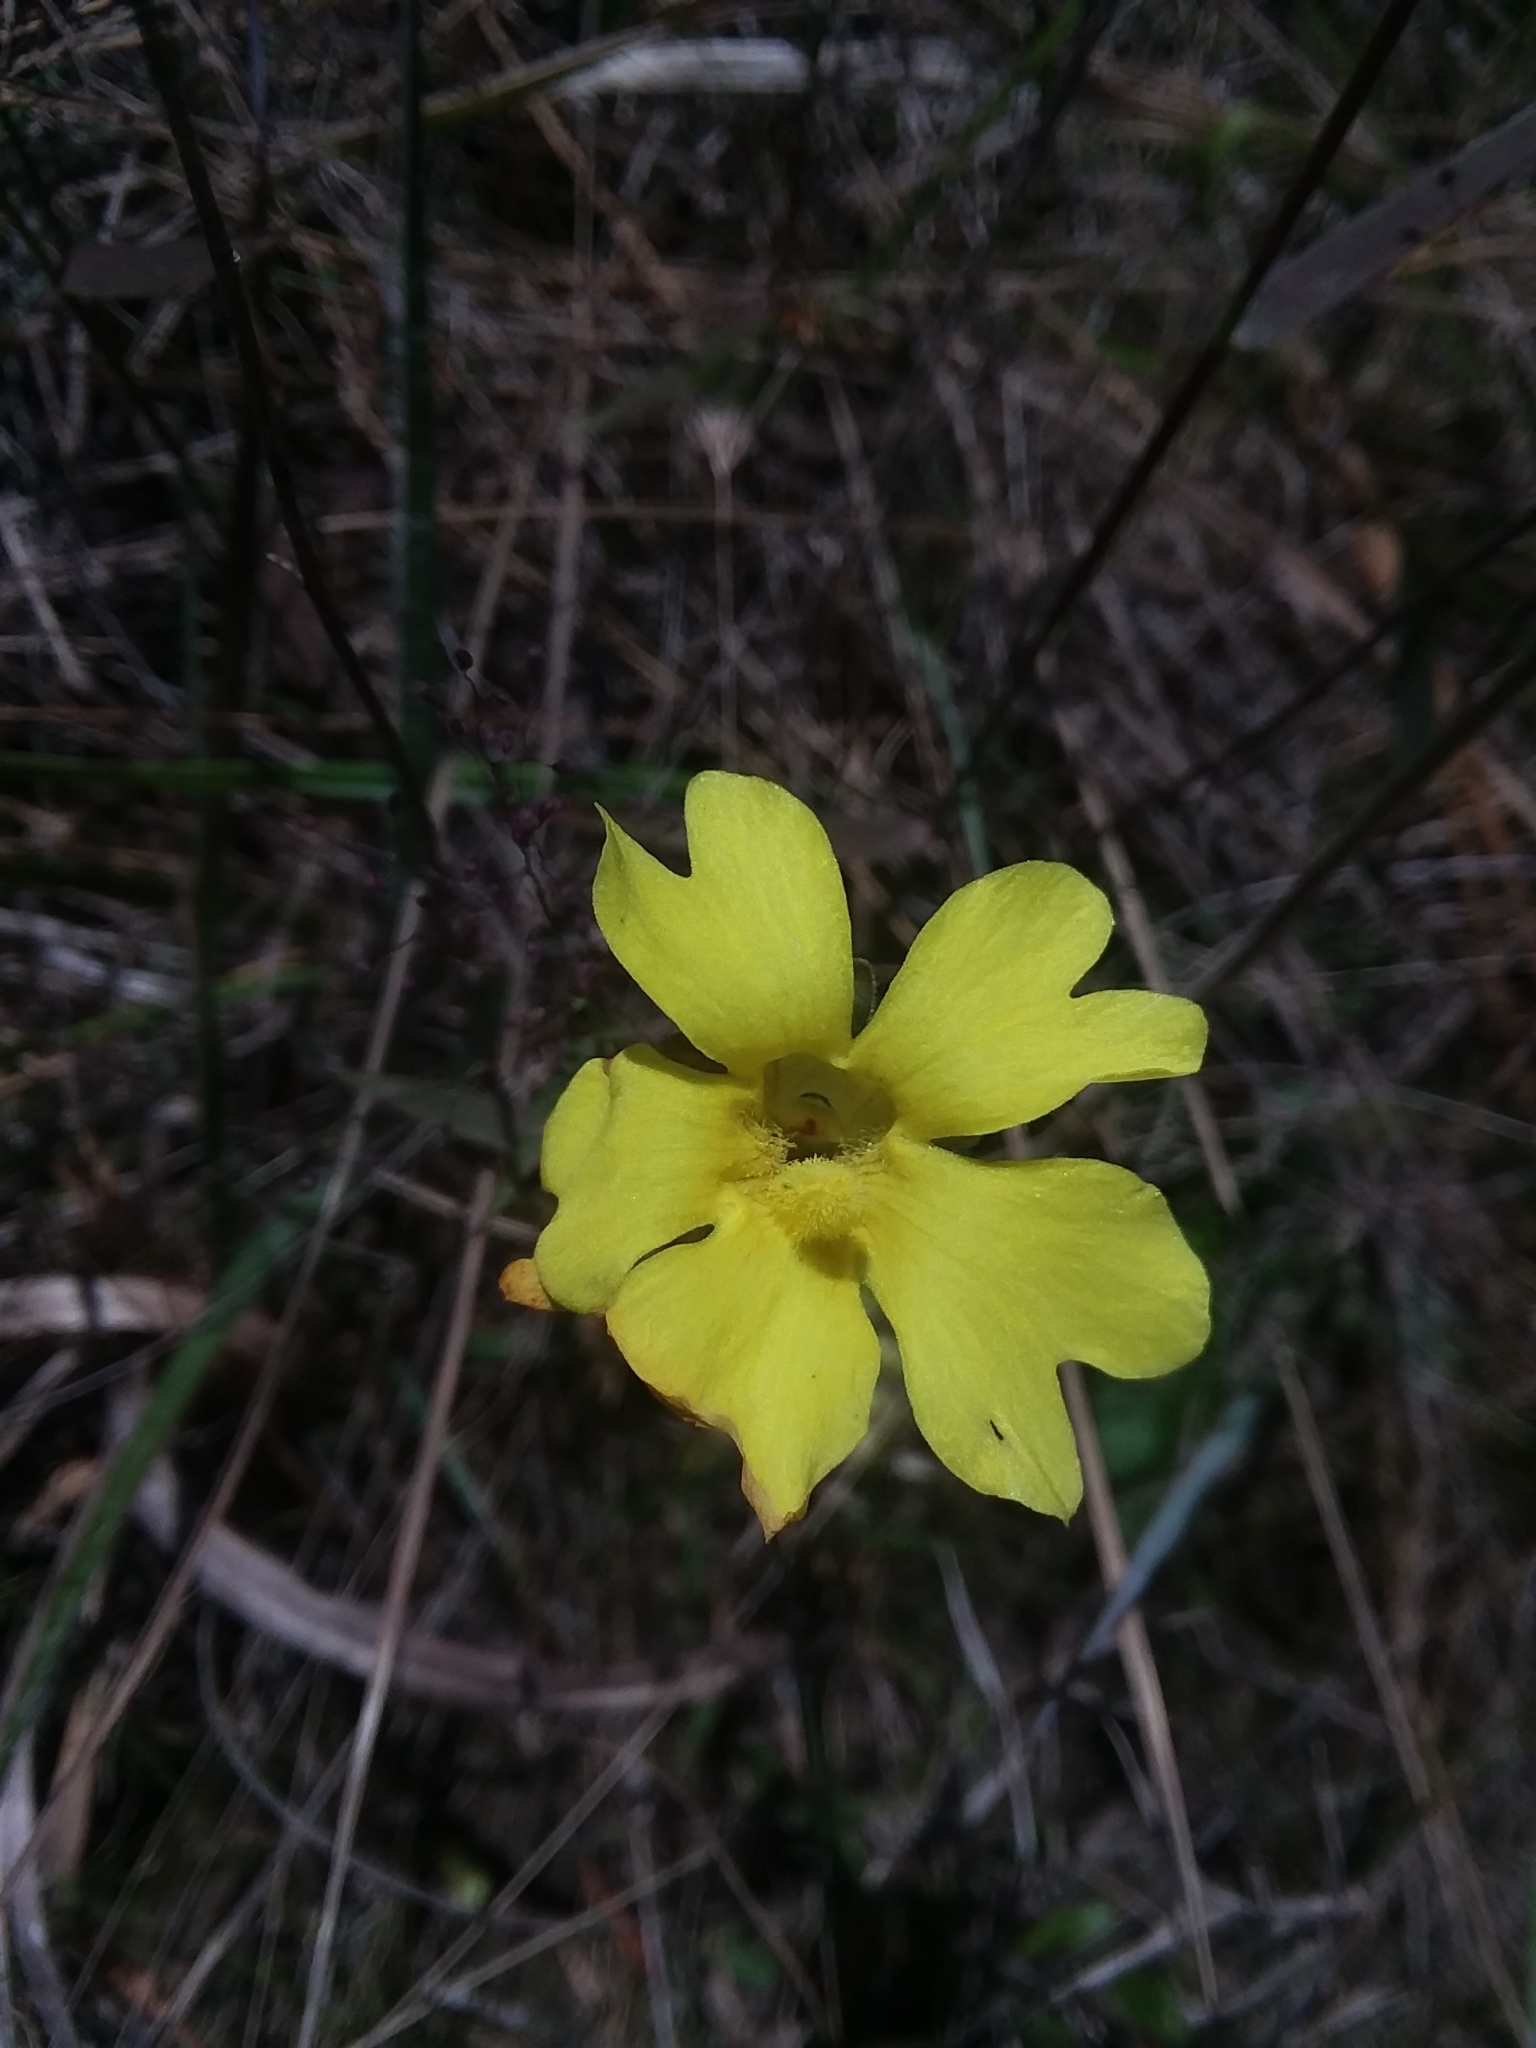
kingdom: Plantae
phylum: Tracheophyta
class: Magnoliopsida
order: Lamiales
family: Lentibulariaceae
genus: Pinguicula
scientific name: Pinguicula lutea
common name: Yellow butterwort
